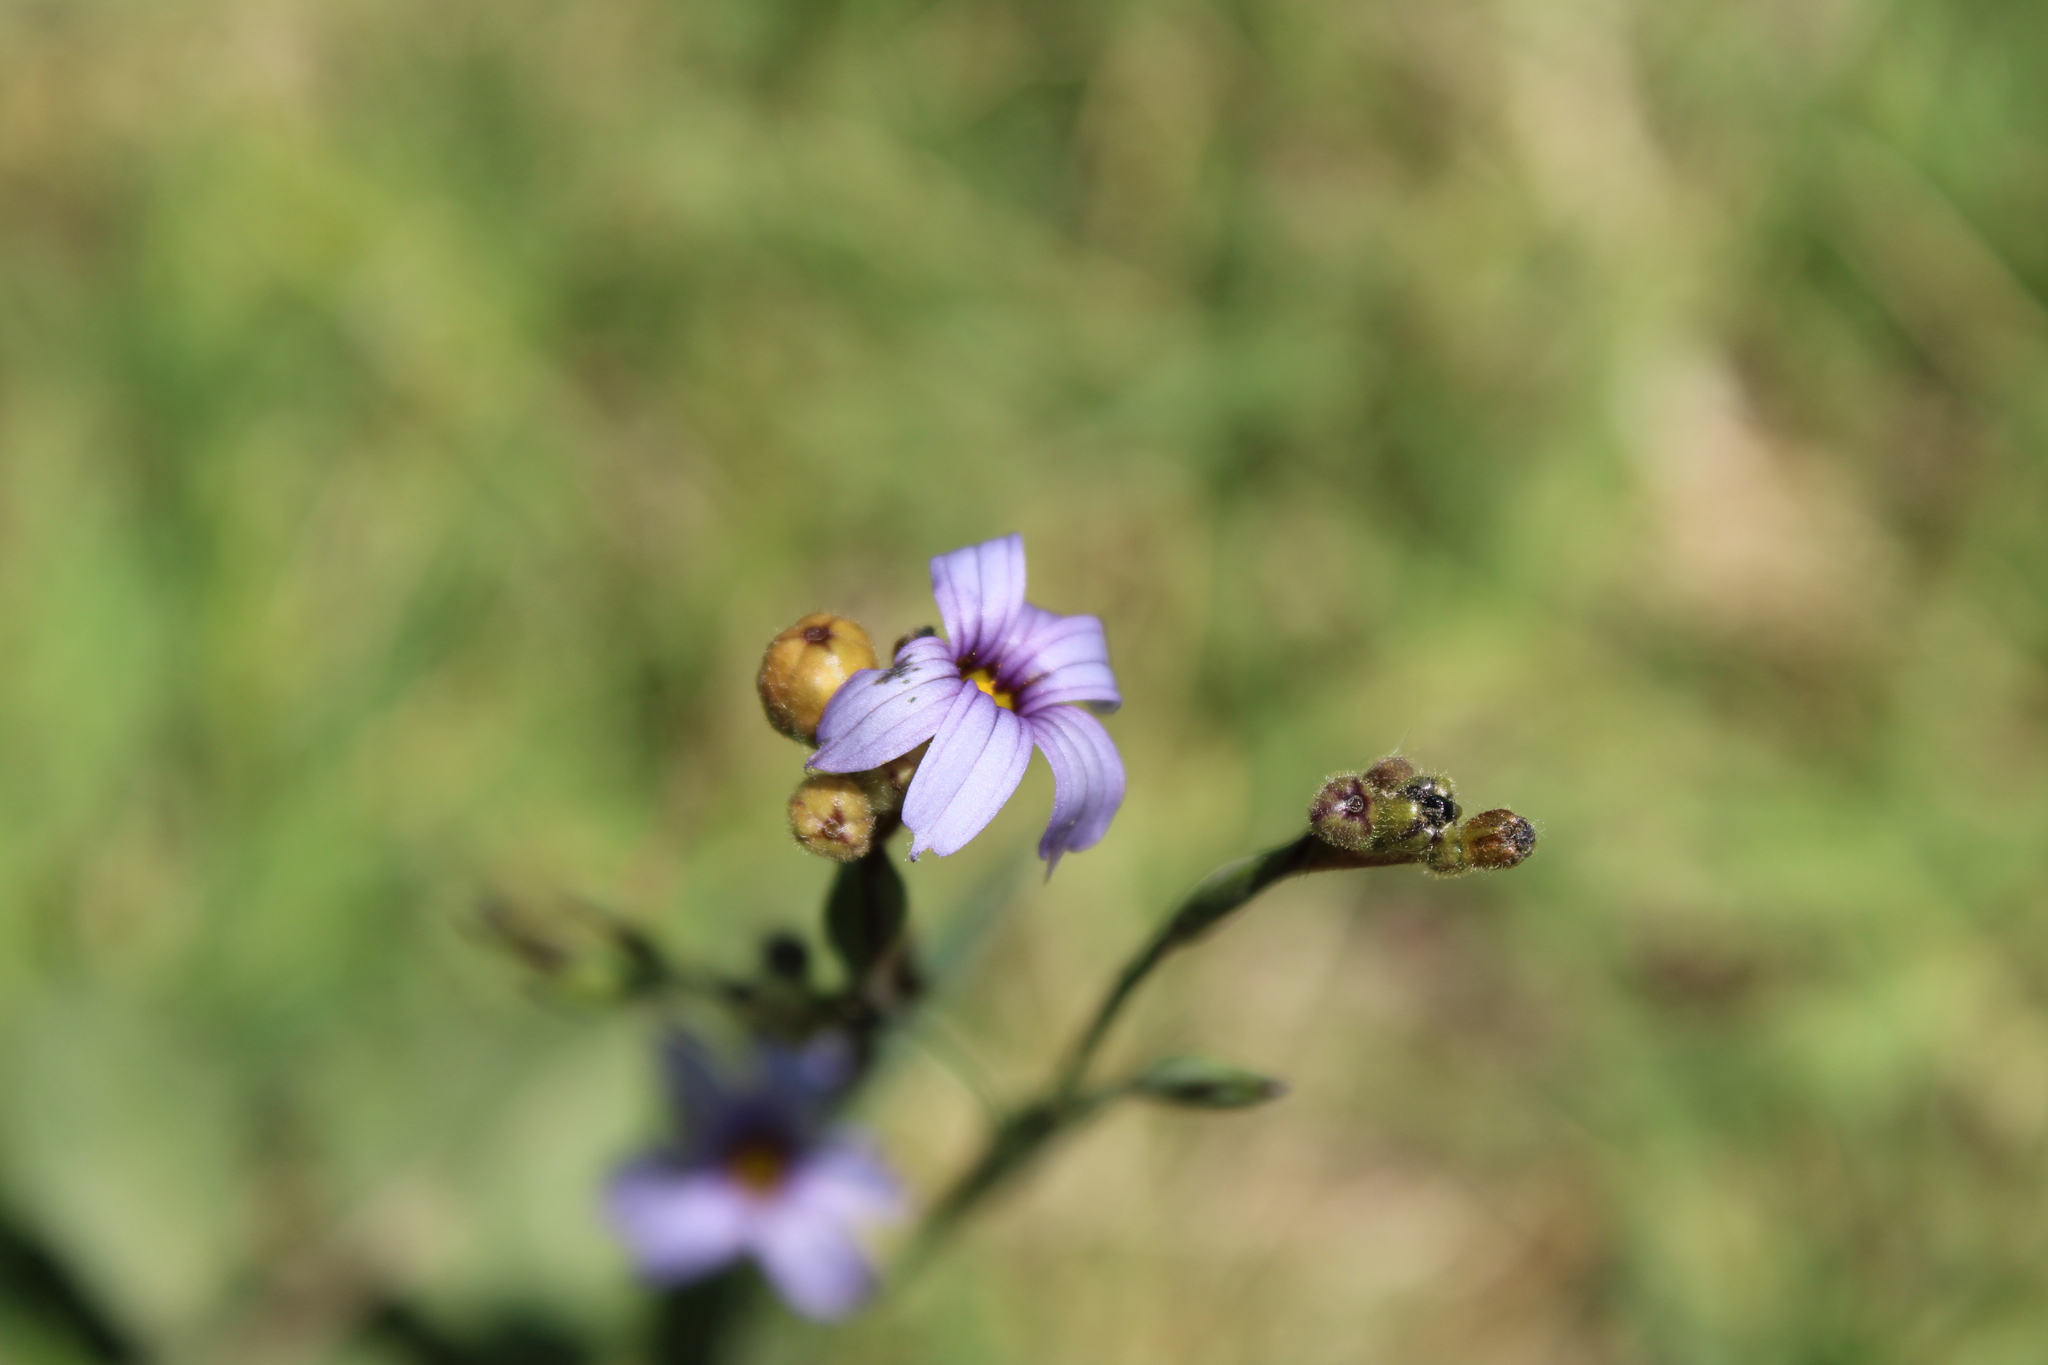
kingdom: Plantae
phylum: Tracheophyta
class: Liliopsida
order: Asparagales
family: Iridaceae
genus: Sisyrinchium
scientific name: Sisyrinchium platense
